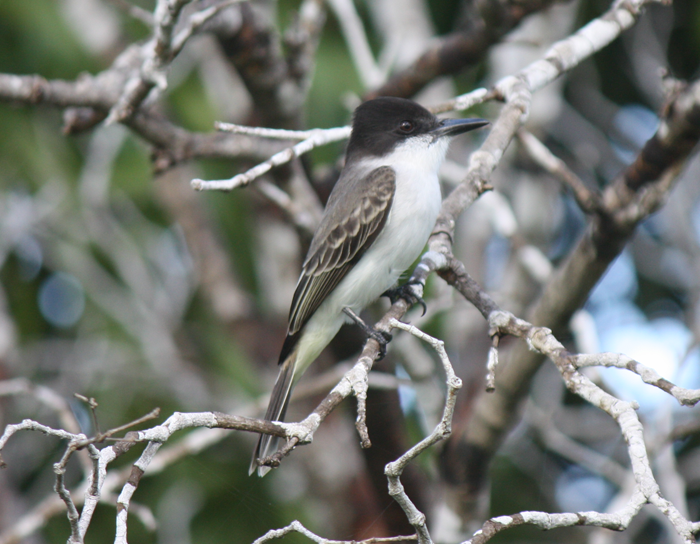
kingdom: Animalia
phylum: Chordata
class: Aves
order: Passeriformes
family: Tyrannidae
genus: Tyrannus
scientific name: Tyrannus caudifasciatus
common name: Loggerhead kingbird
